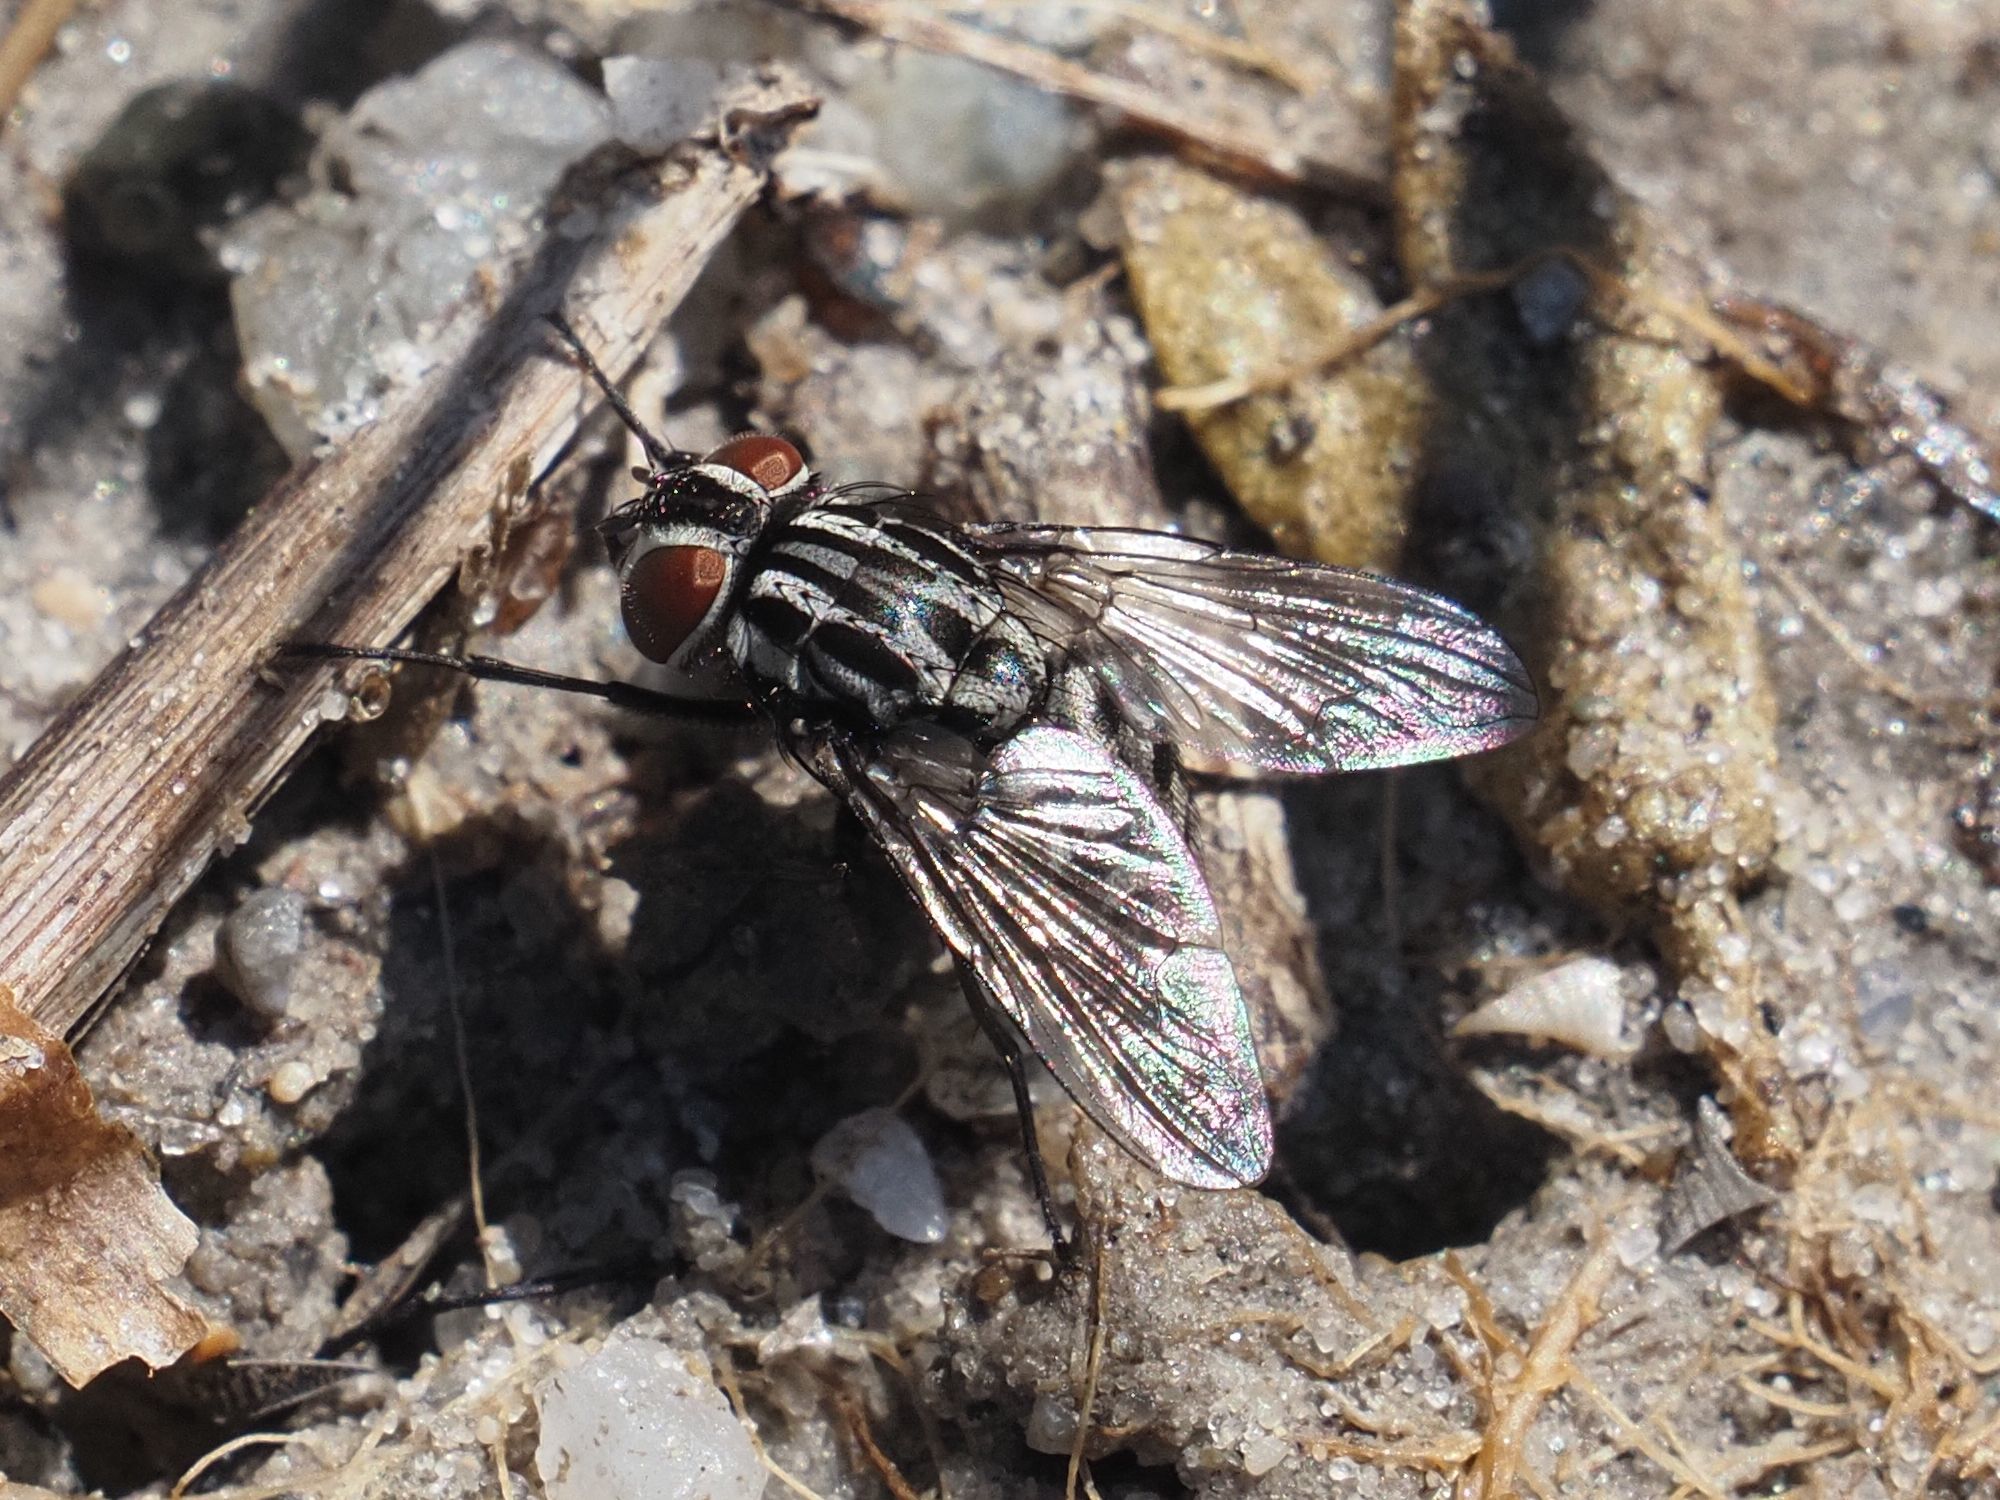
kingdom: Animalia
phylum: Arthropoda
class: Insecta
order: Diptera
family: Muscidae
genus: Graphomya
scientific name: Graphomya maculata
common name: Muscid fly
